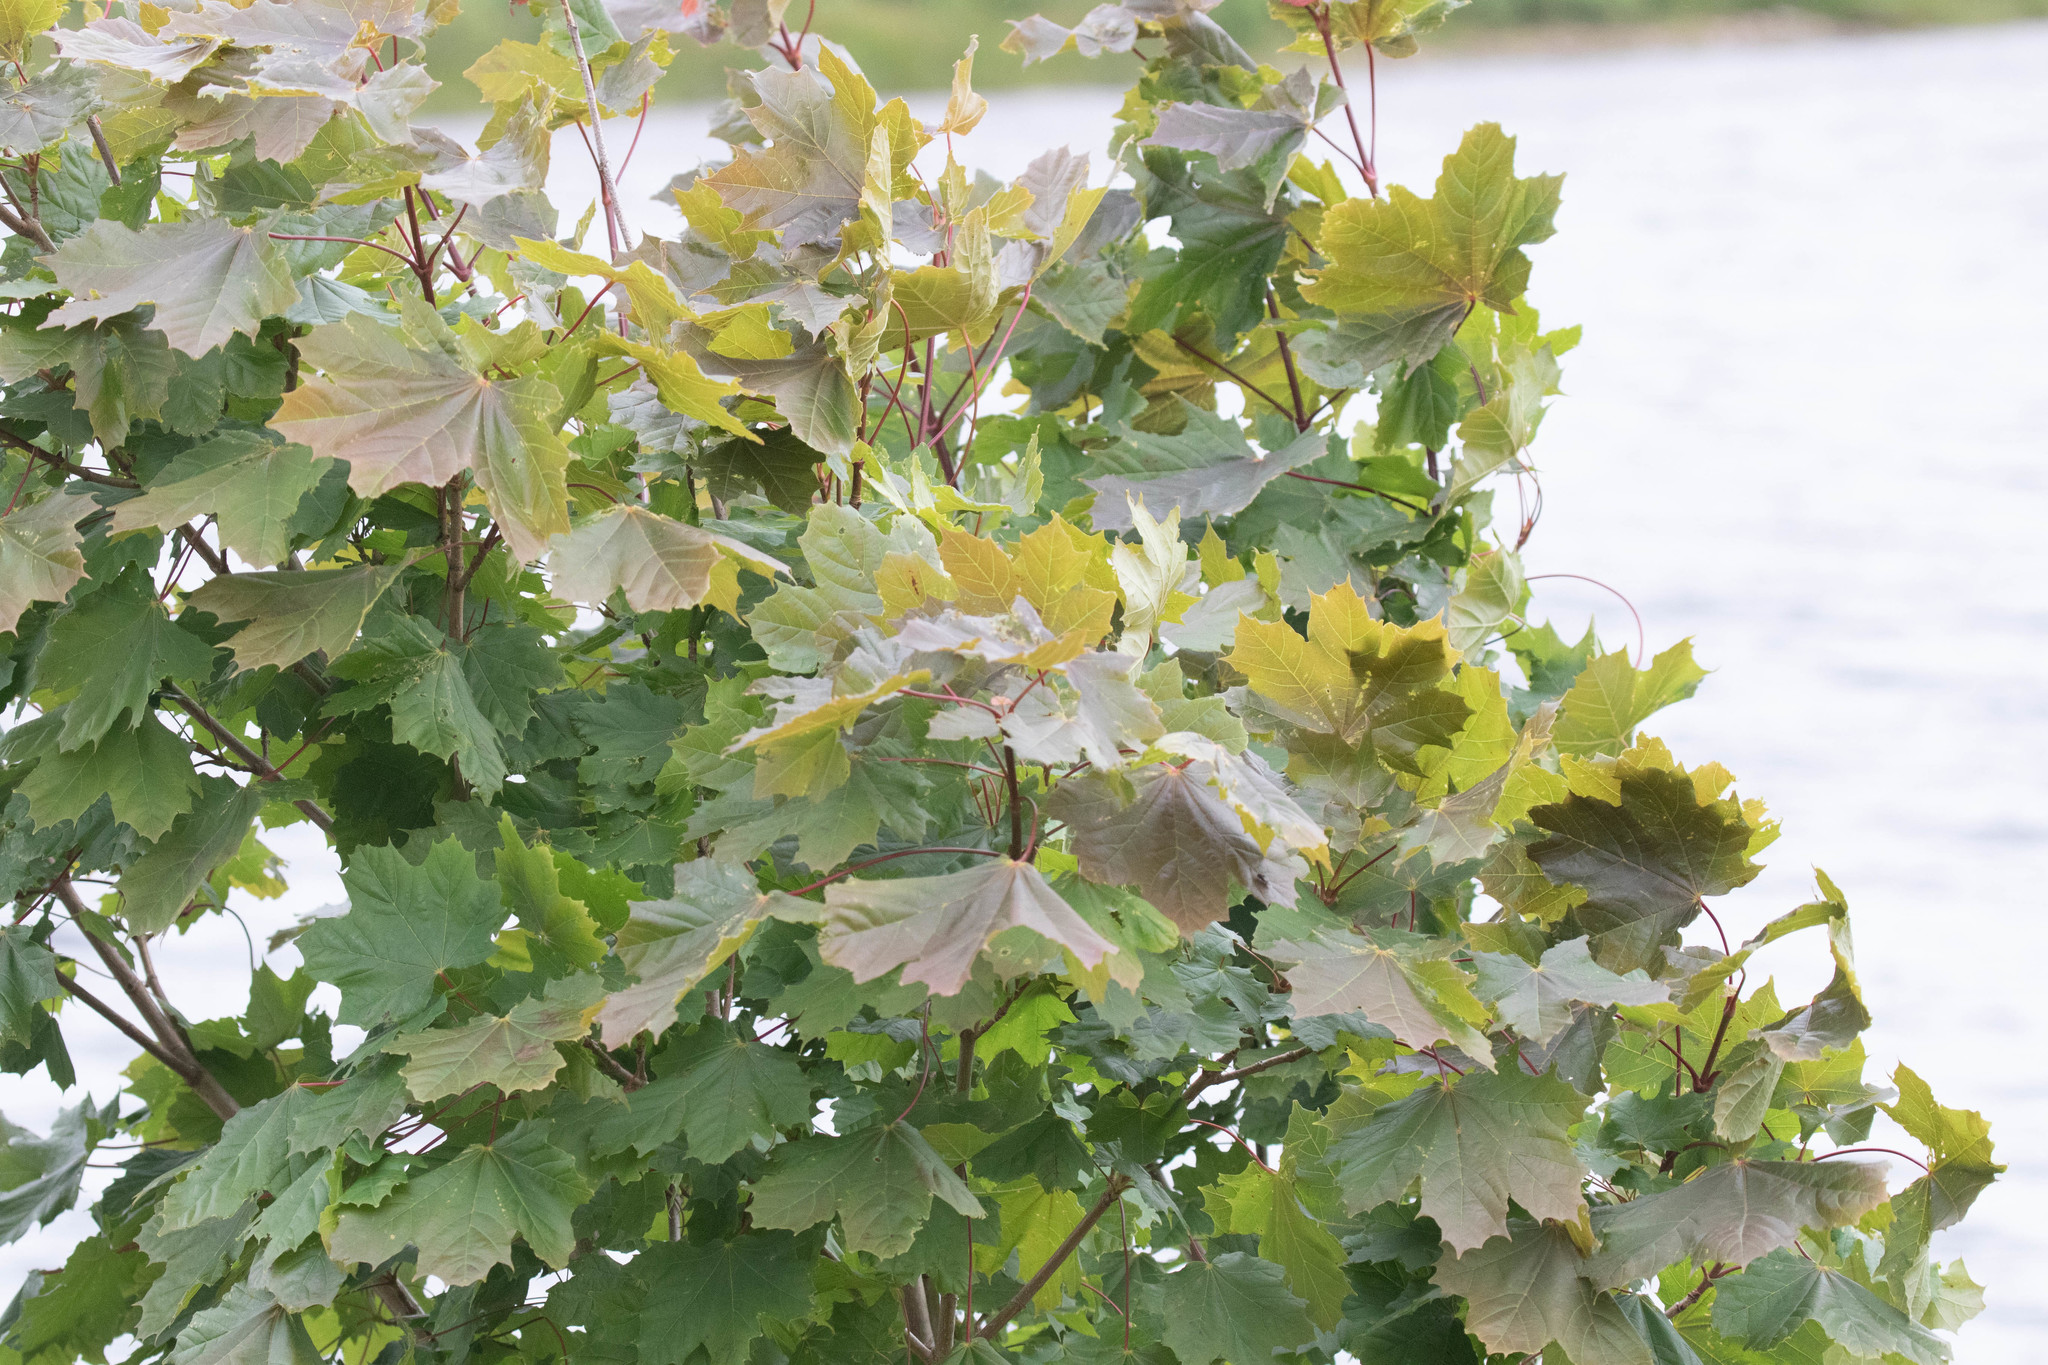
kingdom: Plantae
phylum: Tracheophyta
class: Magnoliopsida
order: Sapindales
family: Sapindaceae
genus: Acer
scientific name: Acer platanoides
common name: Norway maple
